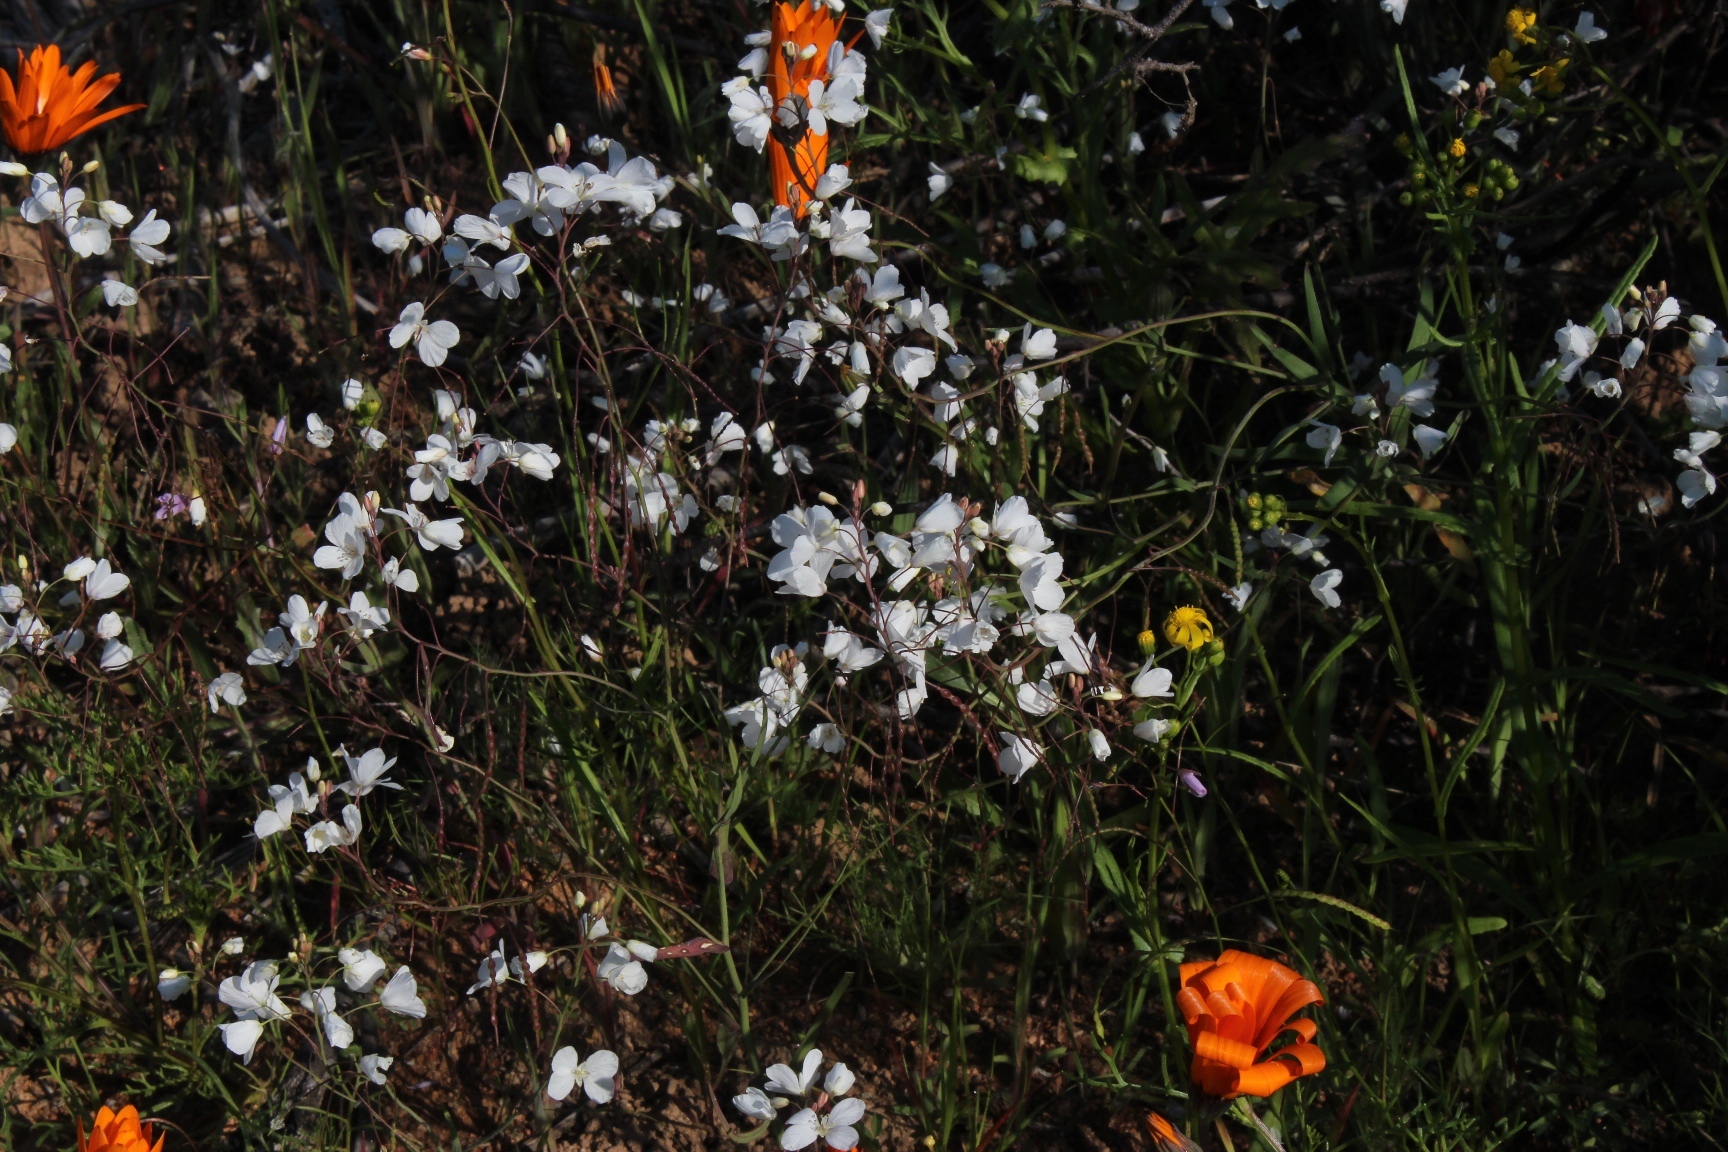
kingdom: Plantae
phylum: Tracheophyta
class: Magnoliopsida
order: Brassicales
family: Brassicaceae
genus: Heliophila
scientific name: Heliophila amplexicaulis
